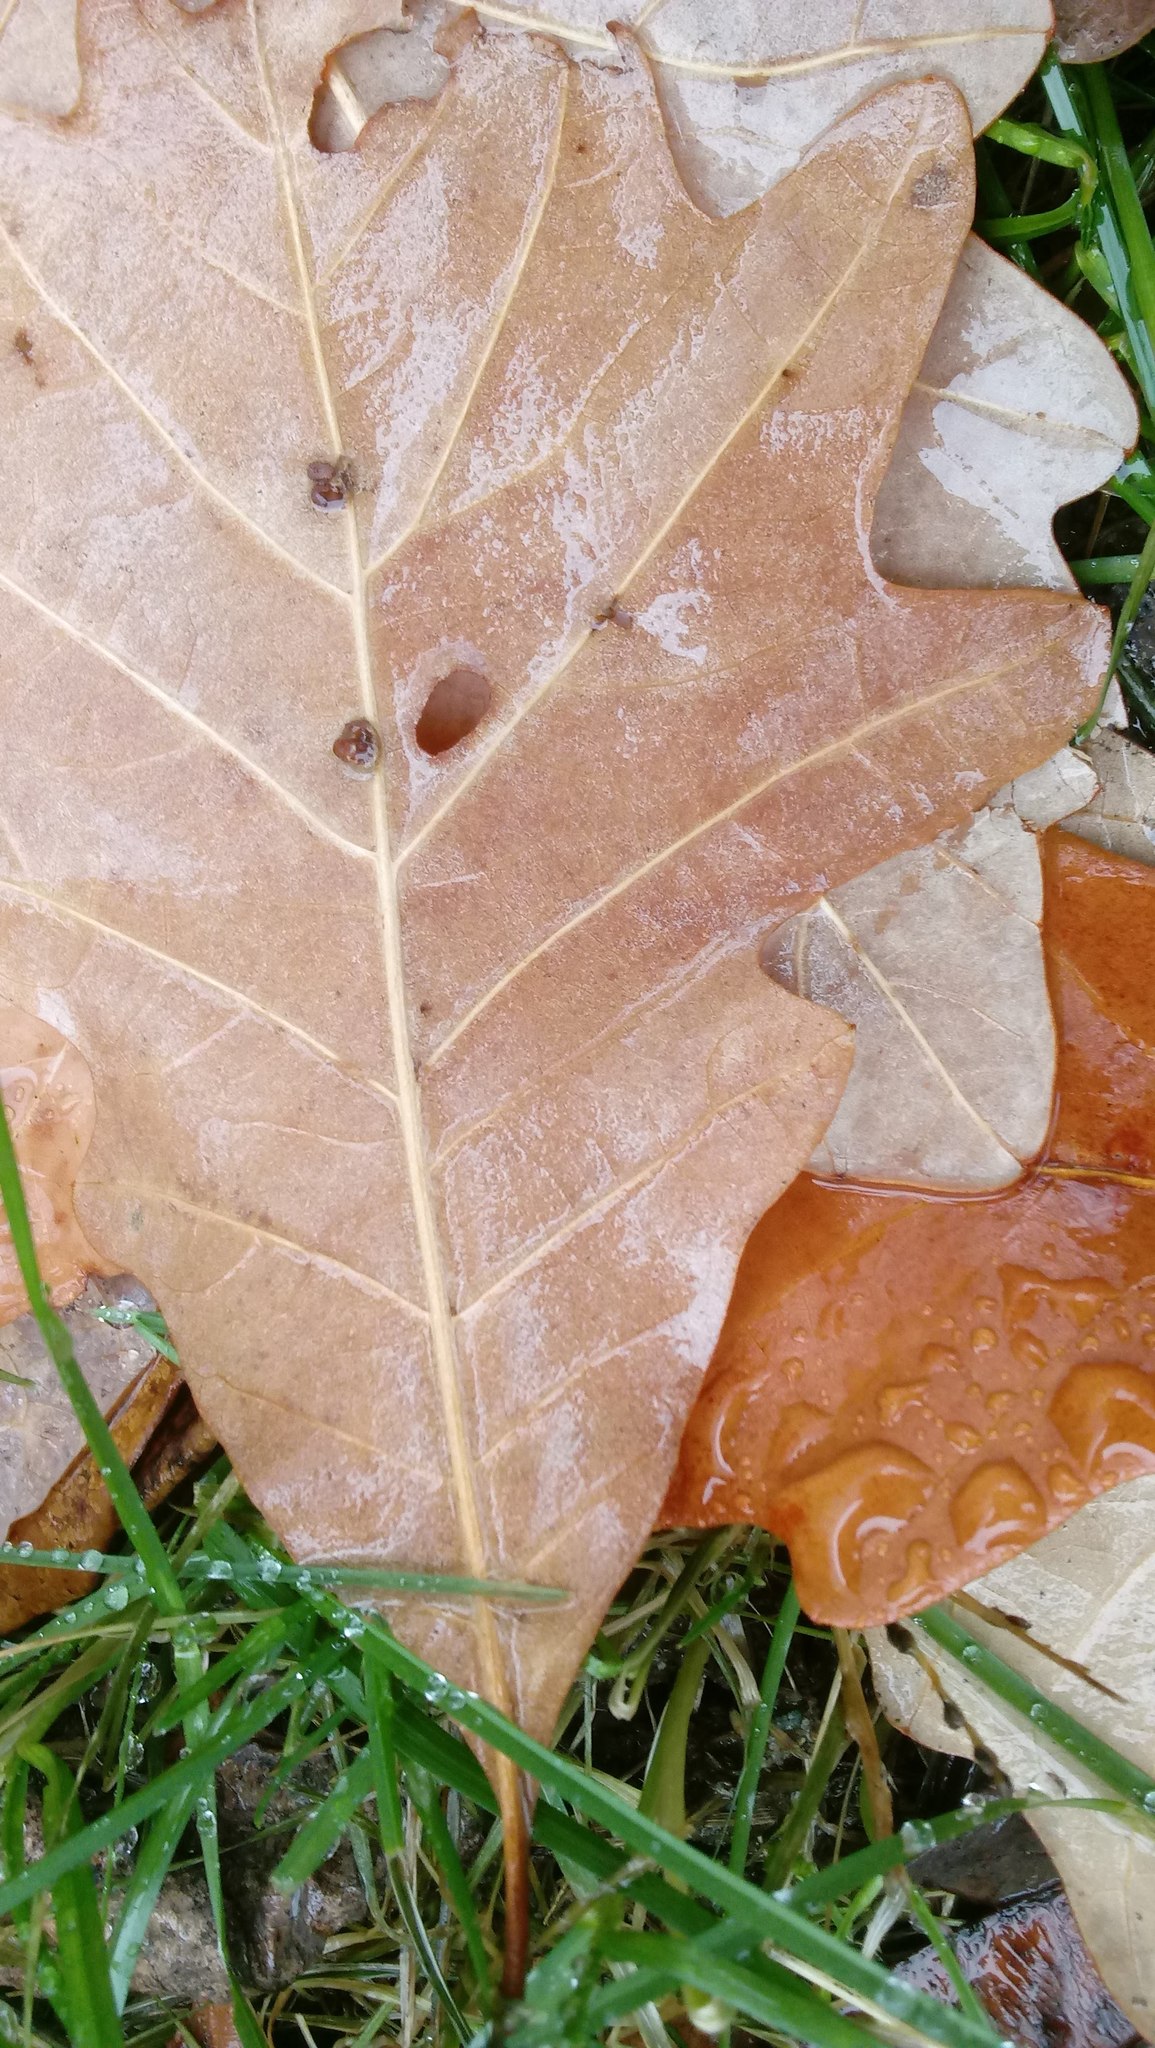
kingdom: Animalia
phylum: Arthropoda
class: Insecta
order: Hymenoptera
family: Cynipidae
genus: Andricus
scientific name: Andricus Druon ignotum
